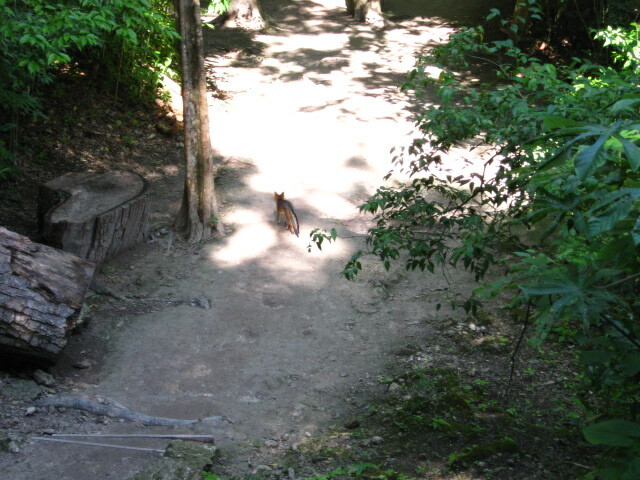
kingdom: Animalia
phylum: Chordata
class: Mammalia
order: Carnivora
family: Canidae
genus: Urocyon
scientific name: Urocyon cinereoargenteus
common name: Gray fox
